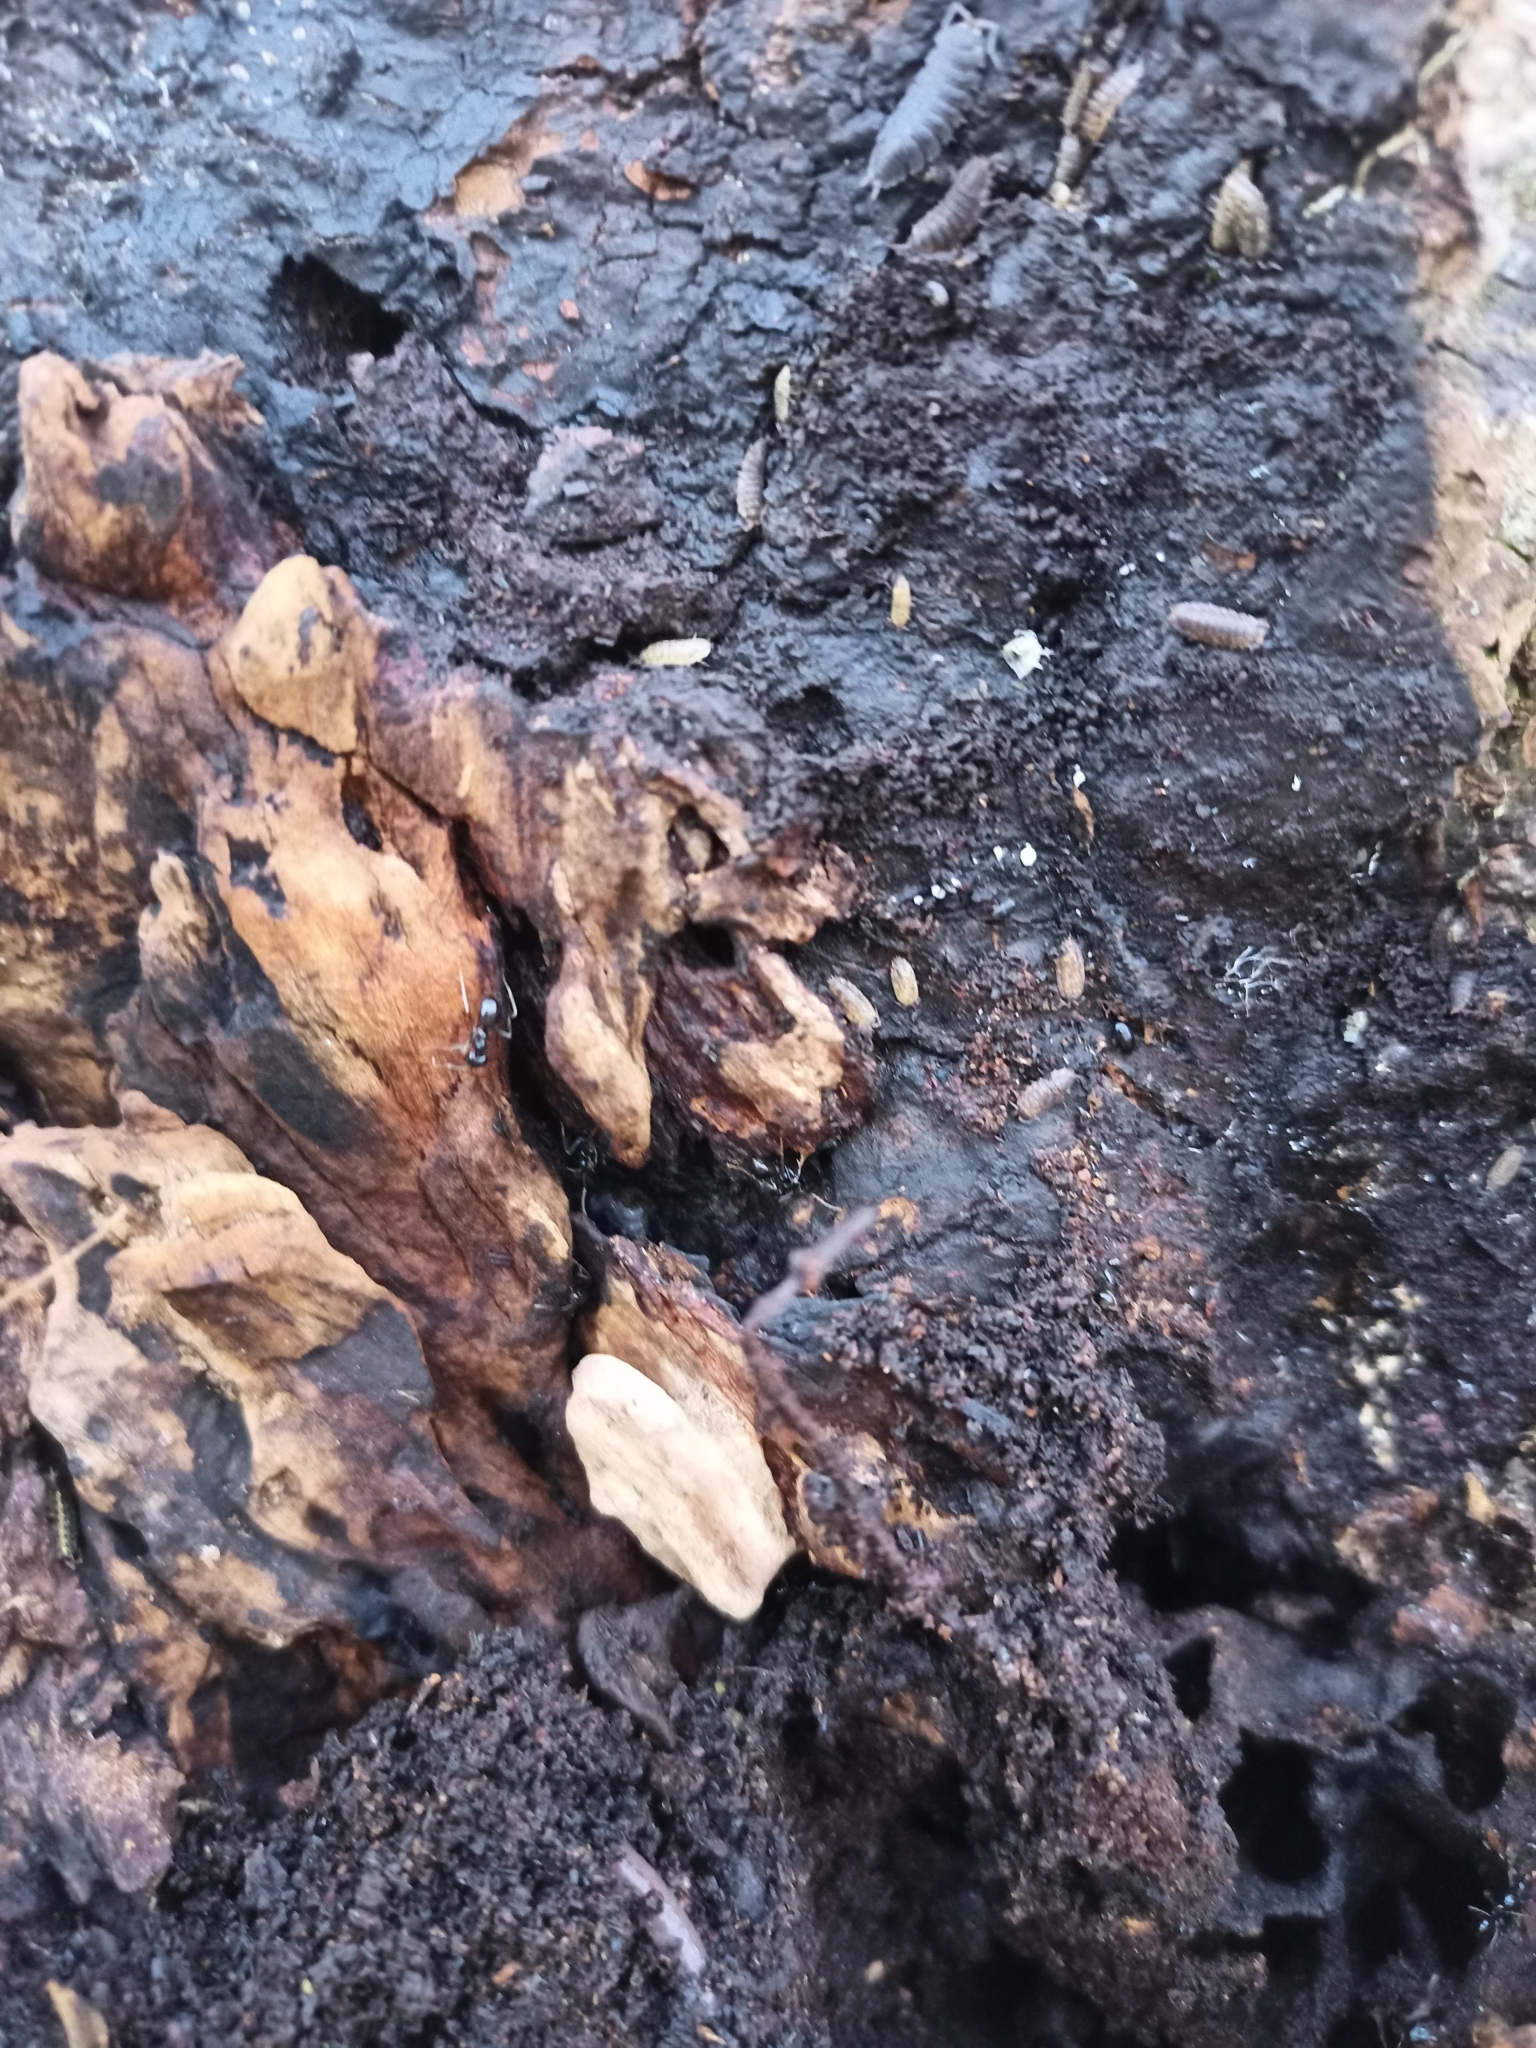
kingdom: Animalia
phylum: Arthropoda
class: Insecta
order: Hymenoptera
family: Formicidae
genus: Lasius
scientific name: Lasius fuliginosus
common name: Jet ant
